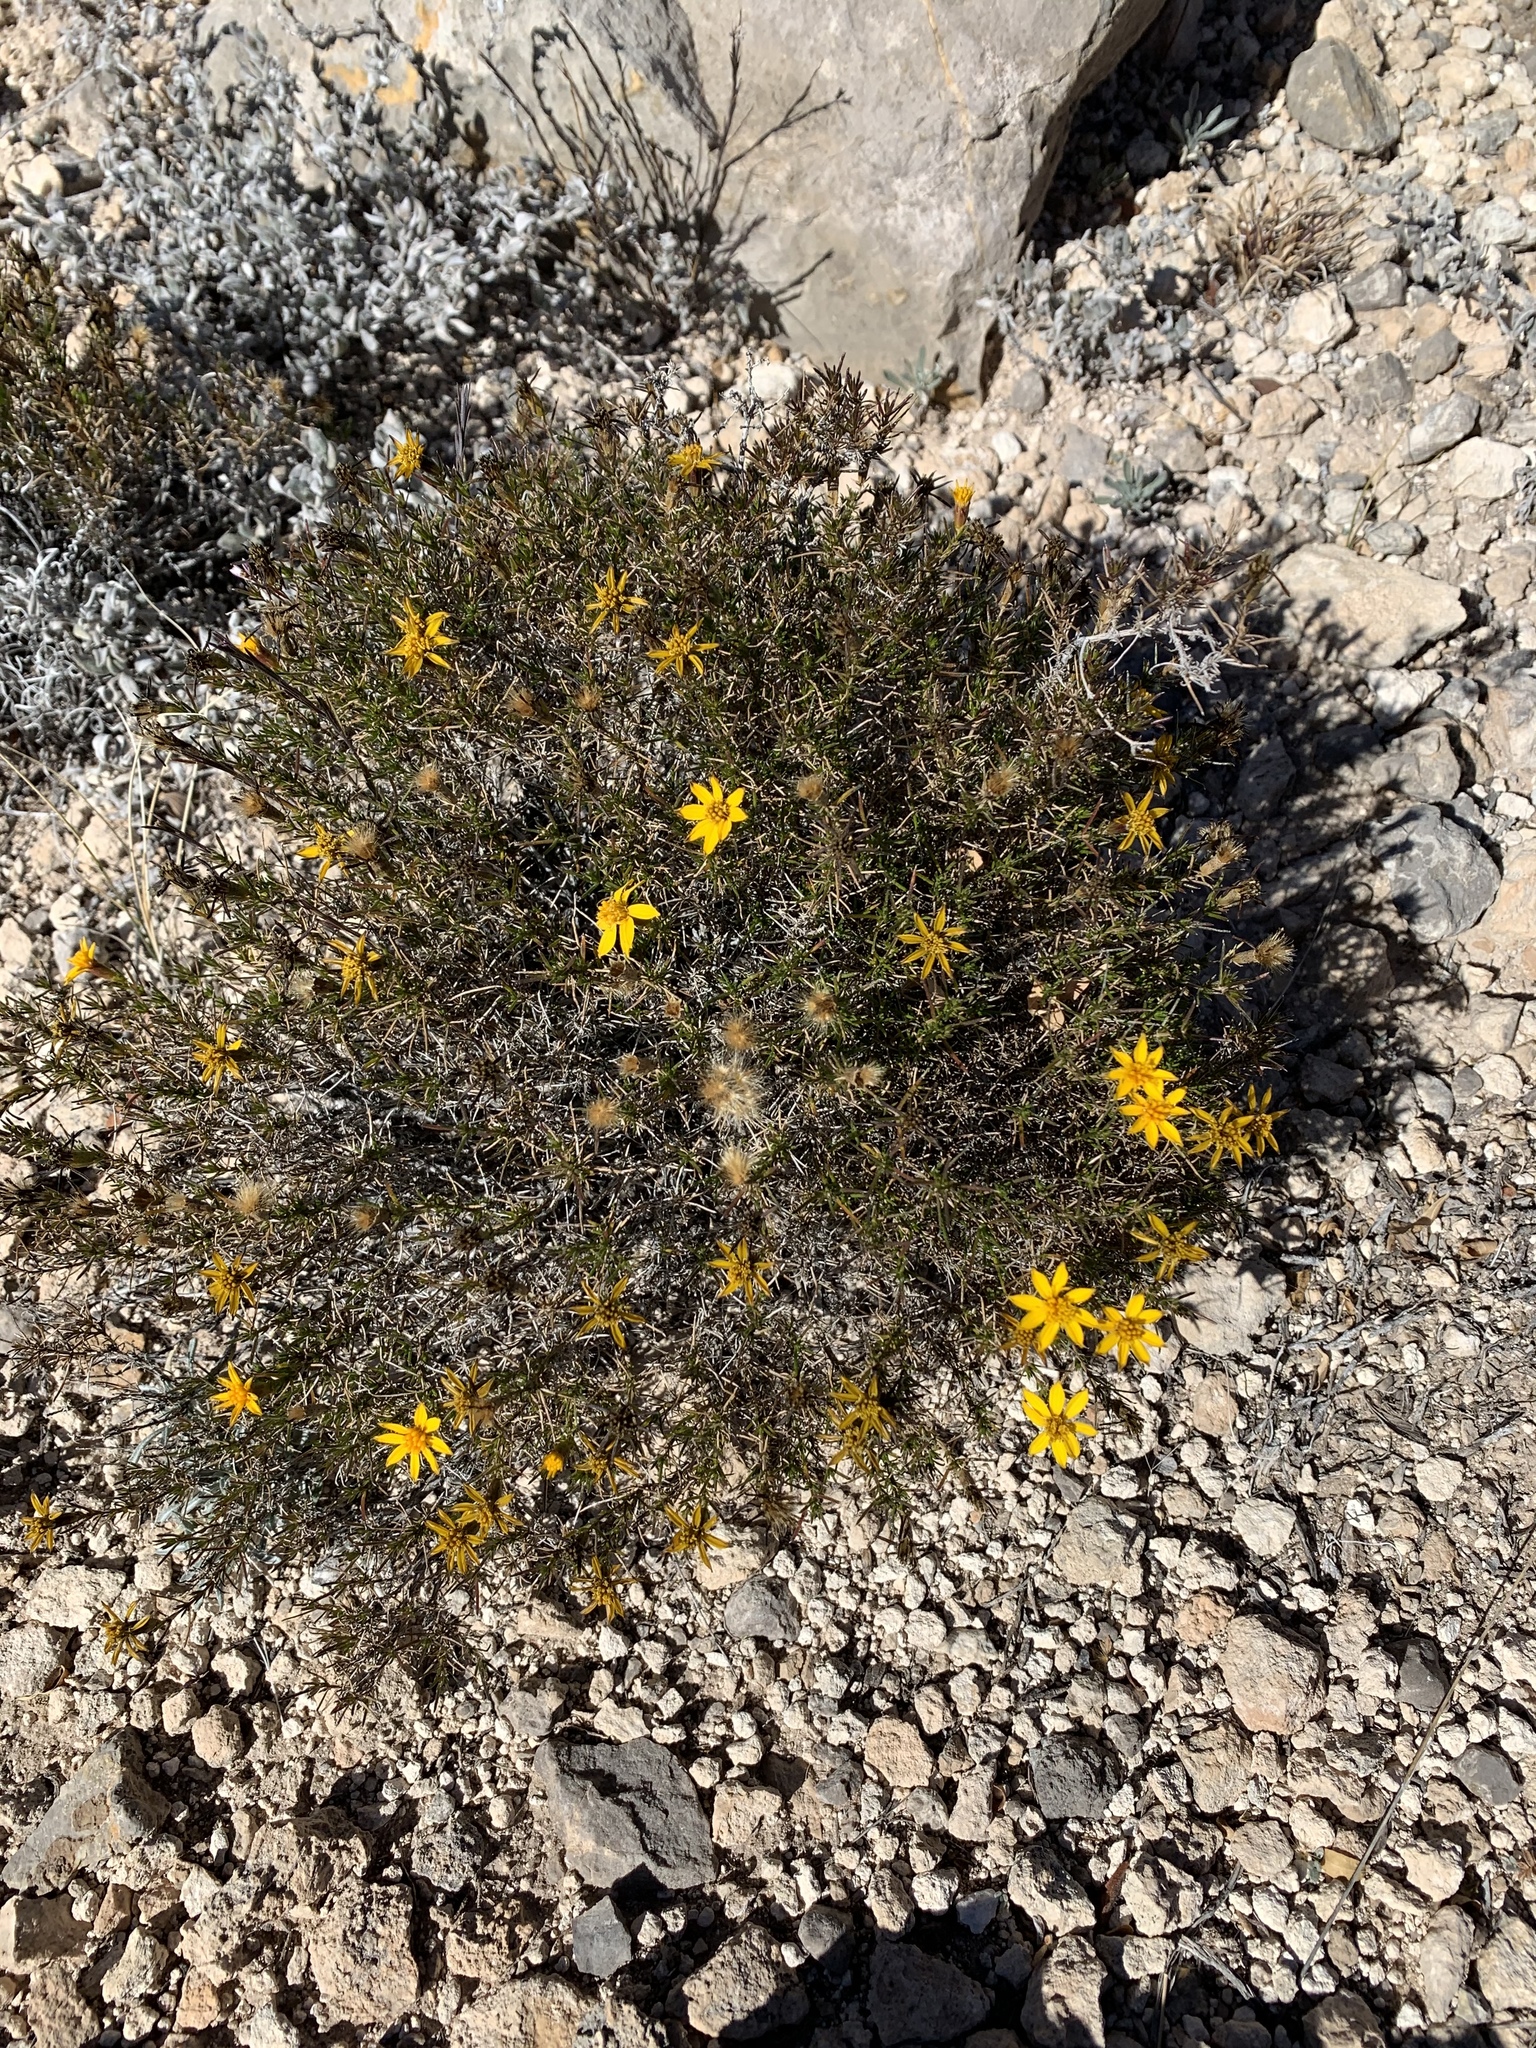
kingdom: Plantae
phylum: Tracheophyta
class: Magnoliopsida
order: Asterales
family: Asteraceae
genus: Thymophylla
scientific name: Thymophylla acerosa
